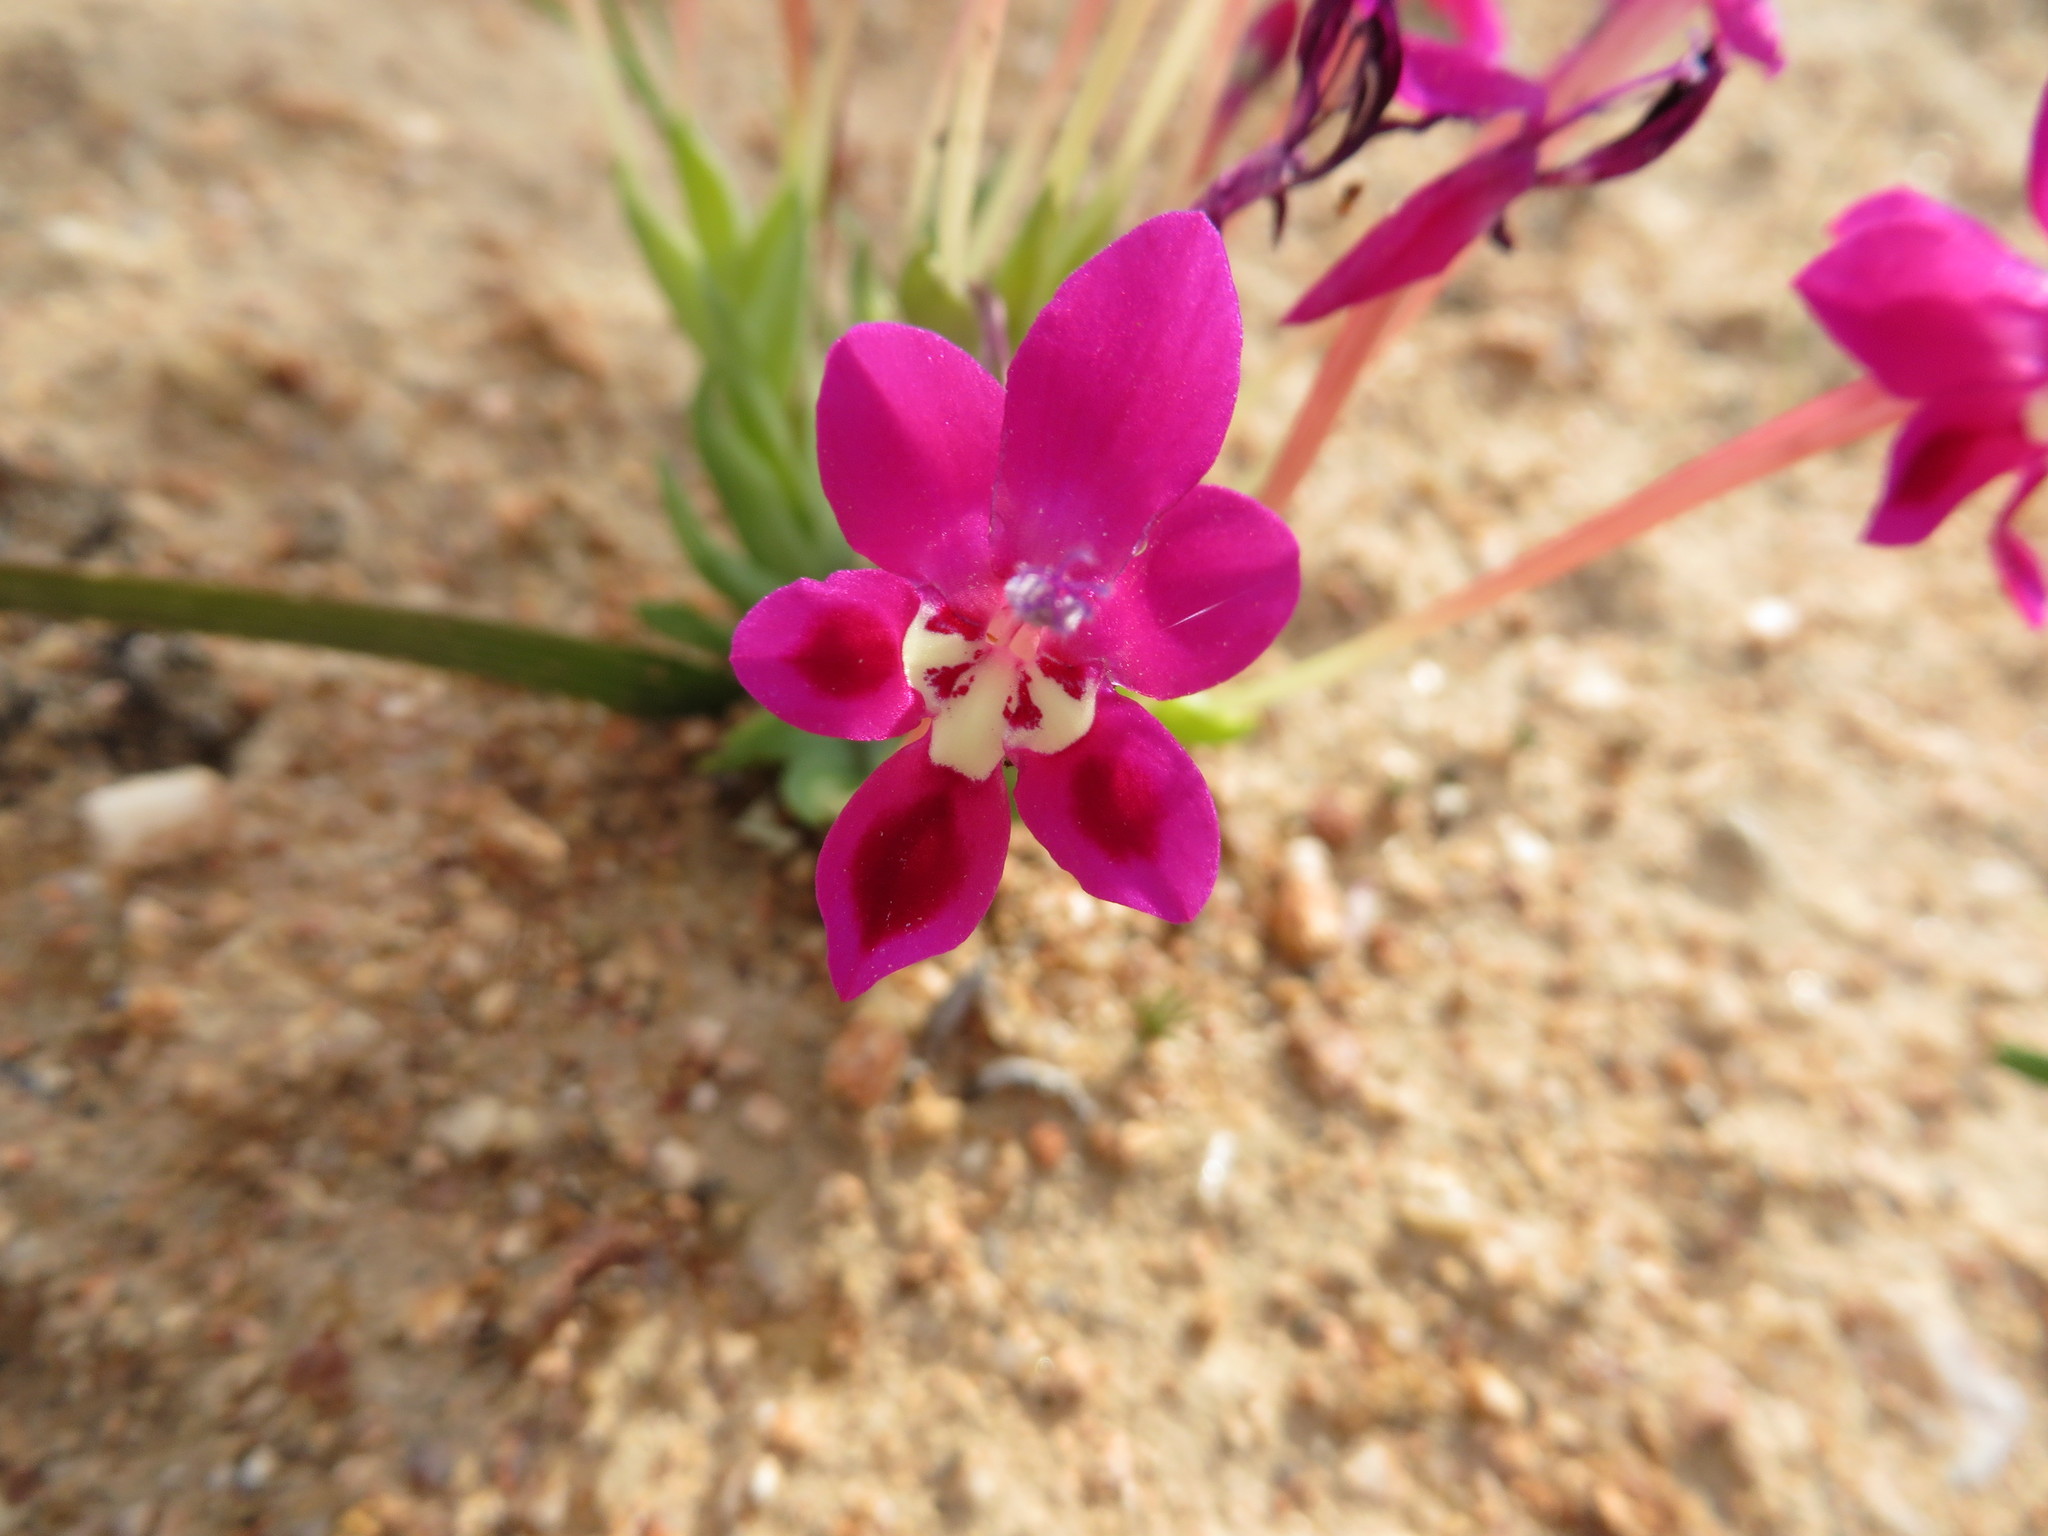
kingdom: Plantae
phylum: Tracheophyta
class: Liliopsida
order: Asparagales
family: Iridaceae
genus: Lapeirousia
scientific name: Lapeirousia silenoides
